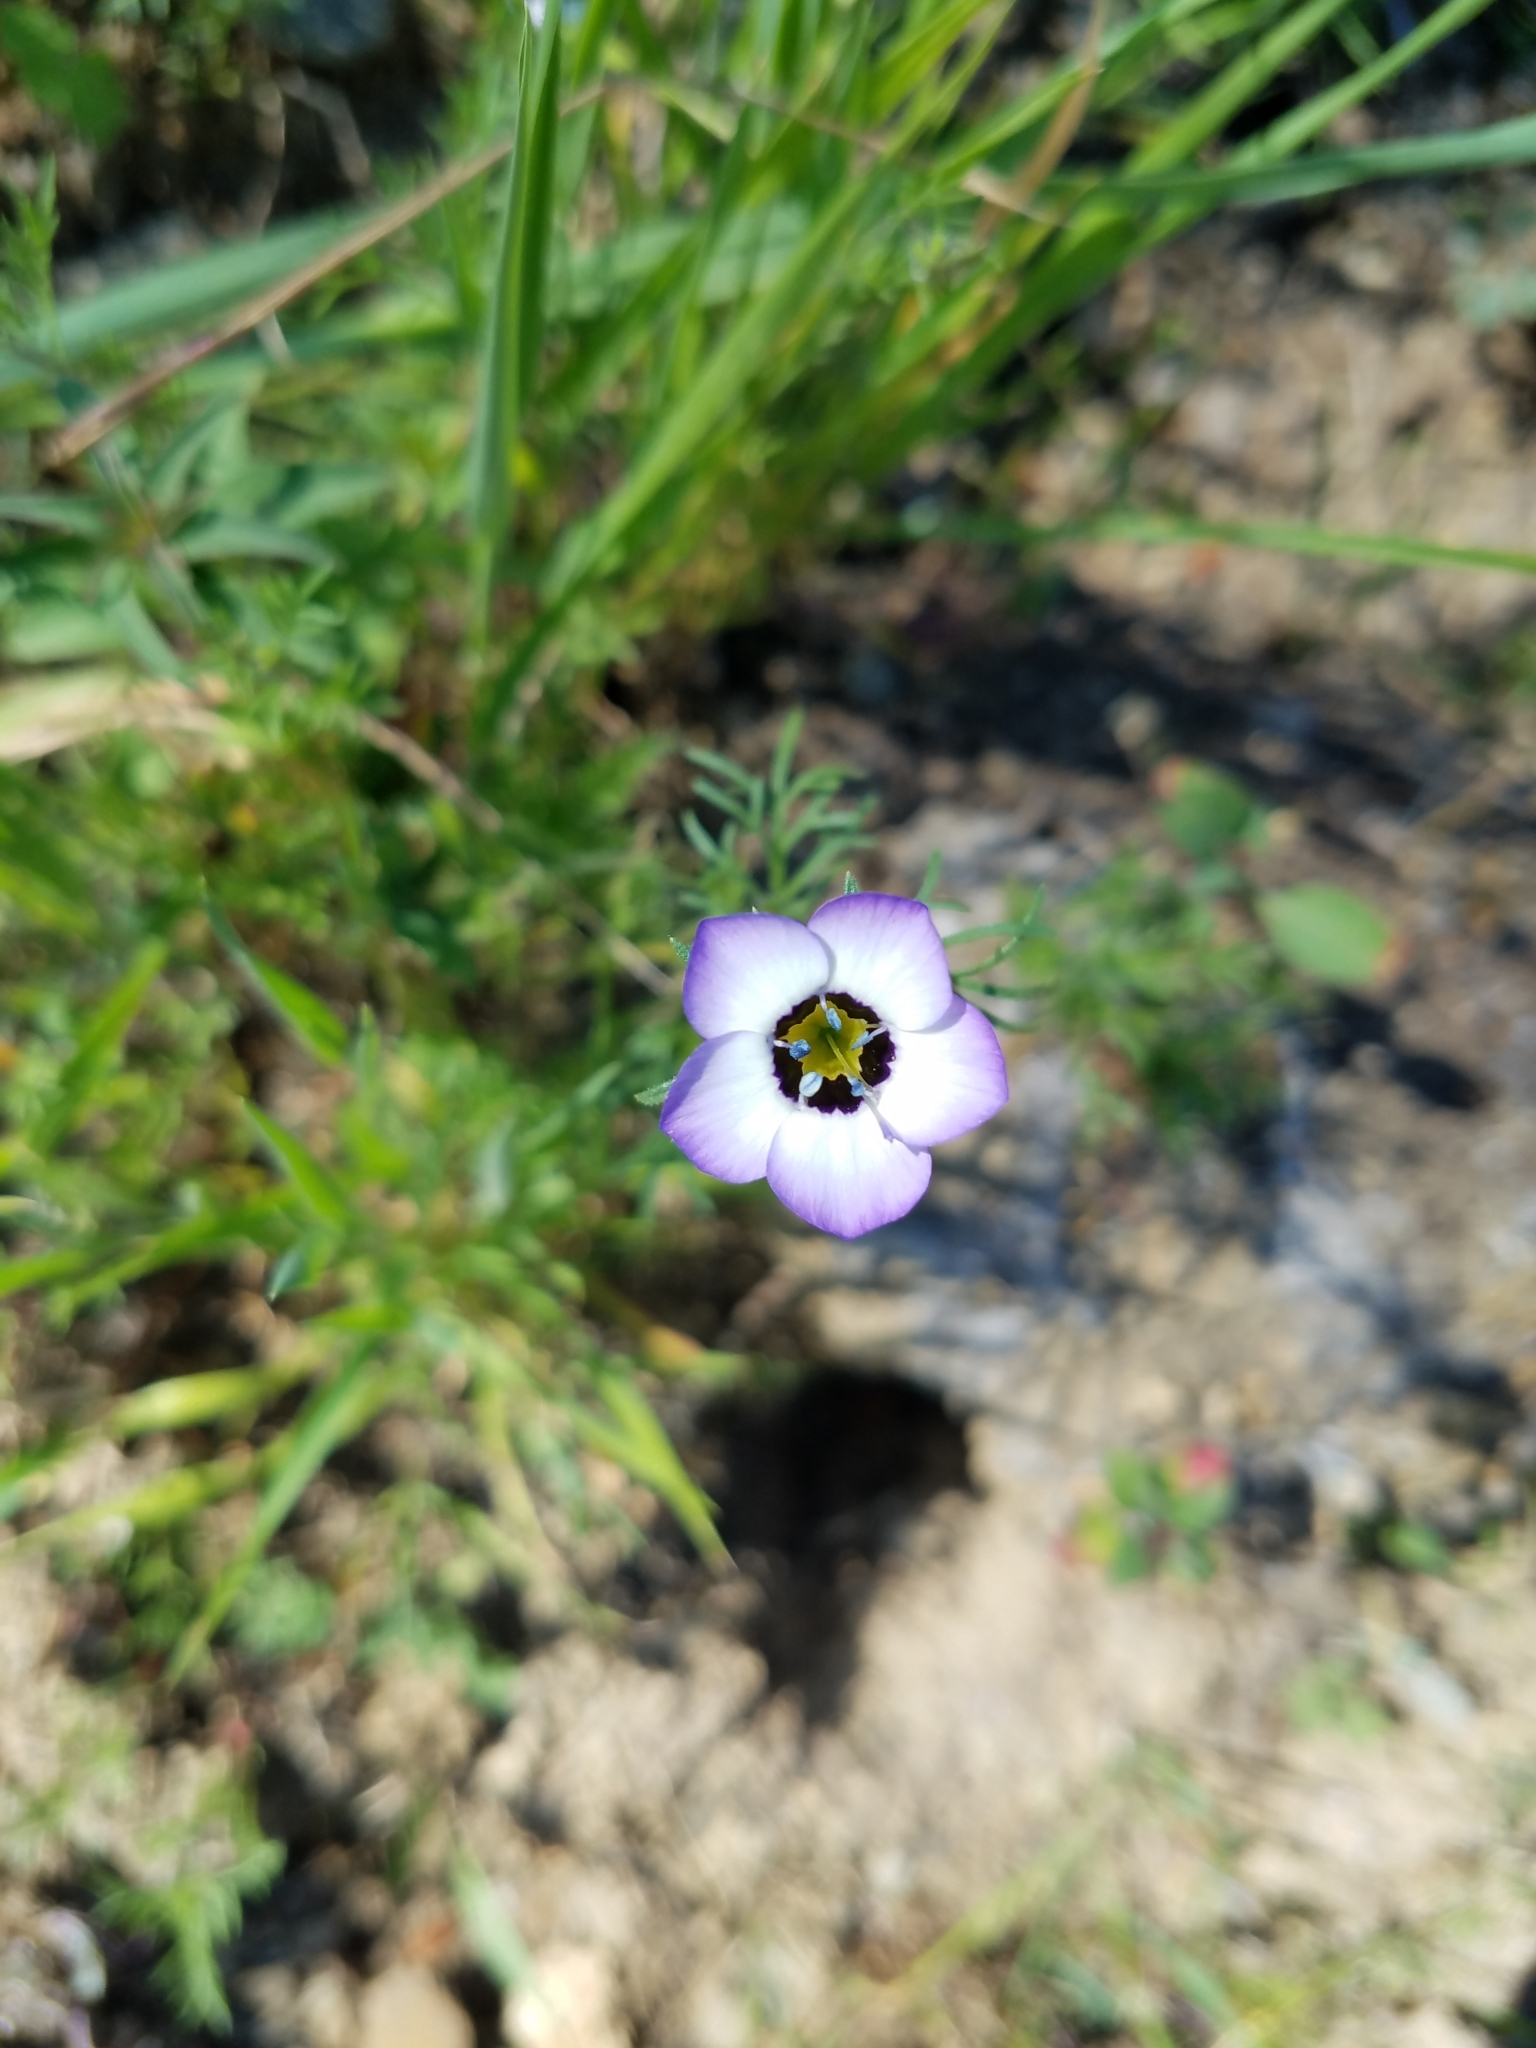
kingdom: Plantae
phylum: Tracheophyta
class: Magnoliopsida
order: Ericales
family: Polemoniaceae
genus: Gilia
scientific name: Gilia tricolor
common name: Bird's-eyes
